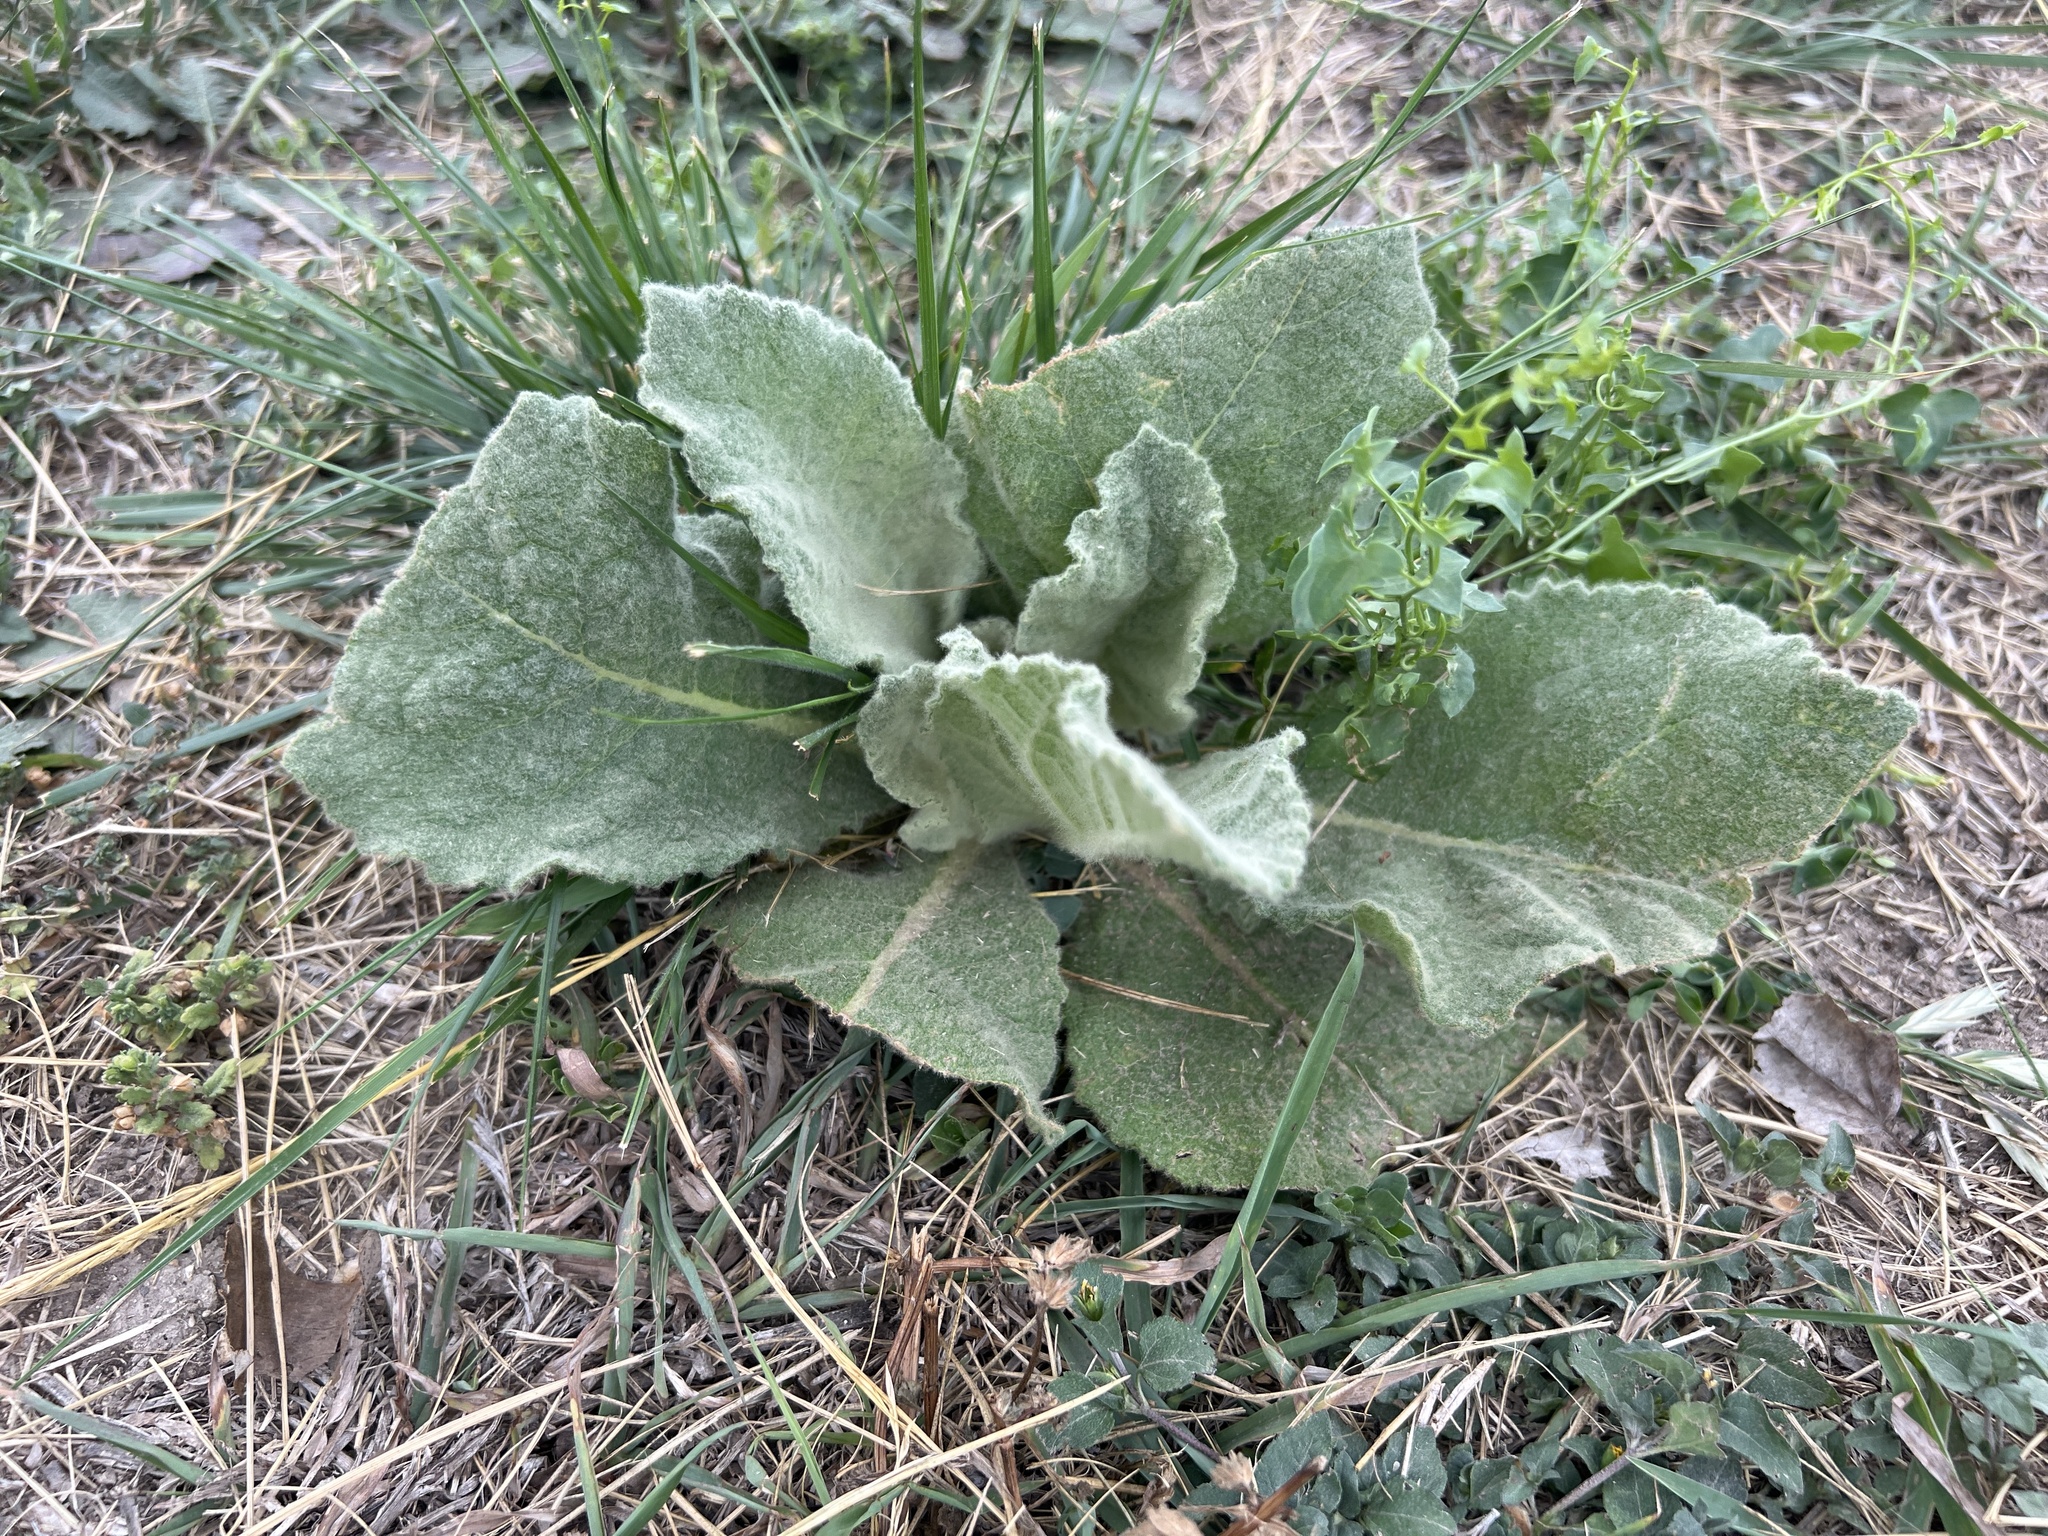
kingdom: Plantae
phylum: Tracheophyta
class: Magnoliopsida
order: Lamiales
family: Scrophulariaceae
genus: Verbascum
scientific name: Verbascum thapsus
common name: Common mullein
